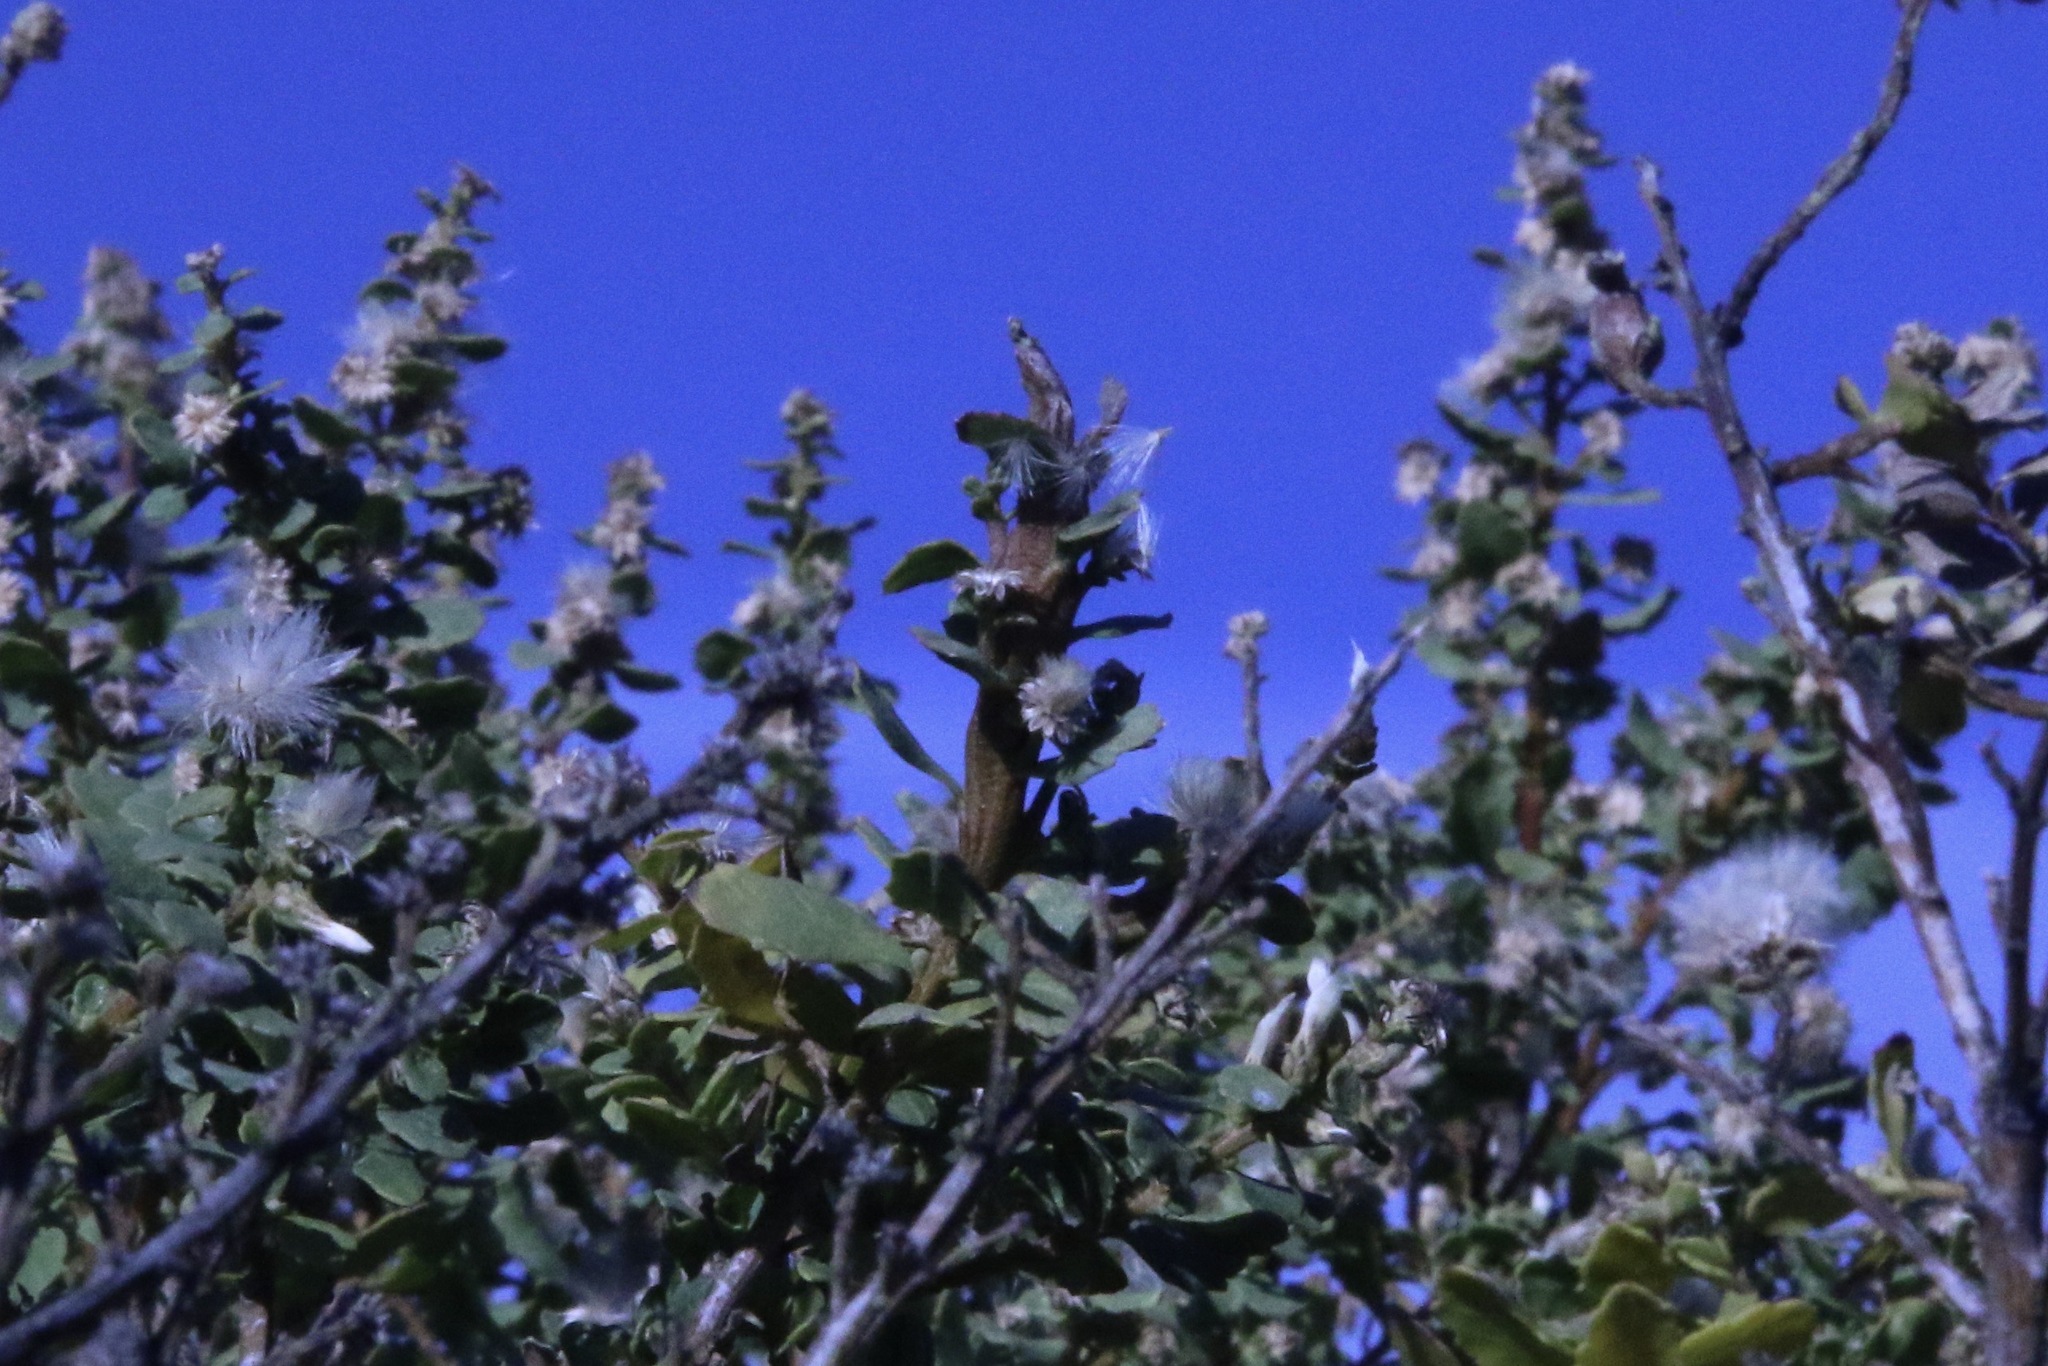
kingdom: Animalia
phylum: Arthropoda
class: Insecta
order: Diptera
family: Cecidomyiidae
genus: Rhopalomyia
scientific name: Rhopalomyia baccharis
